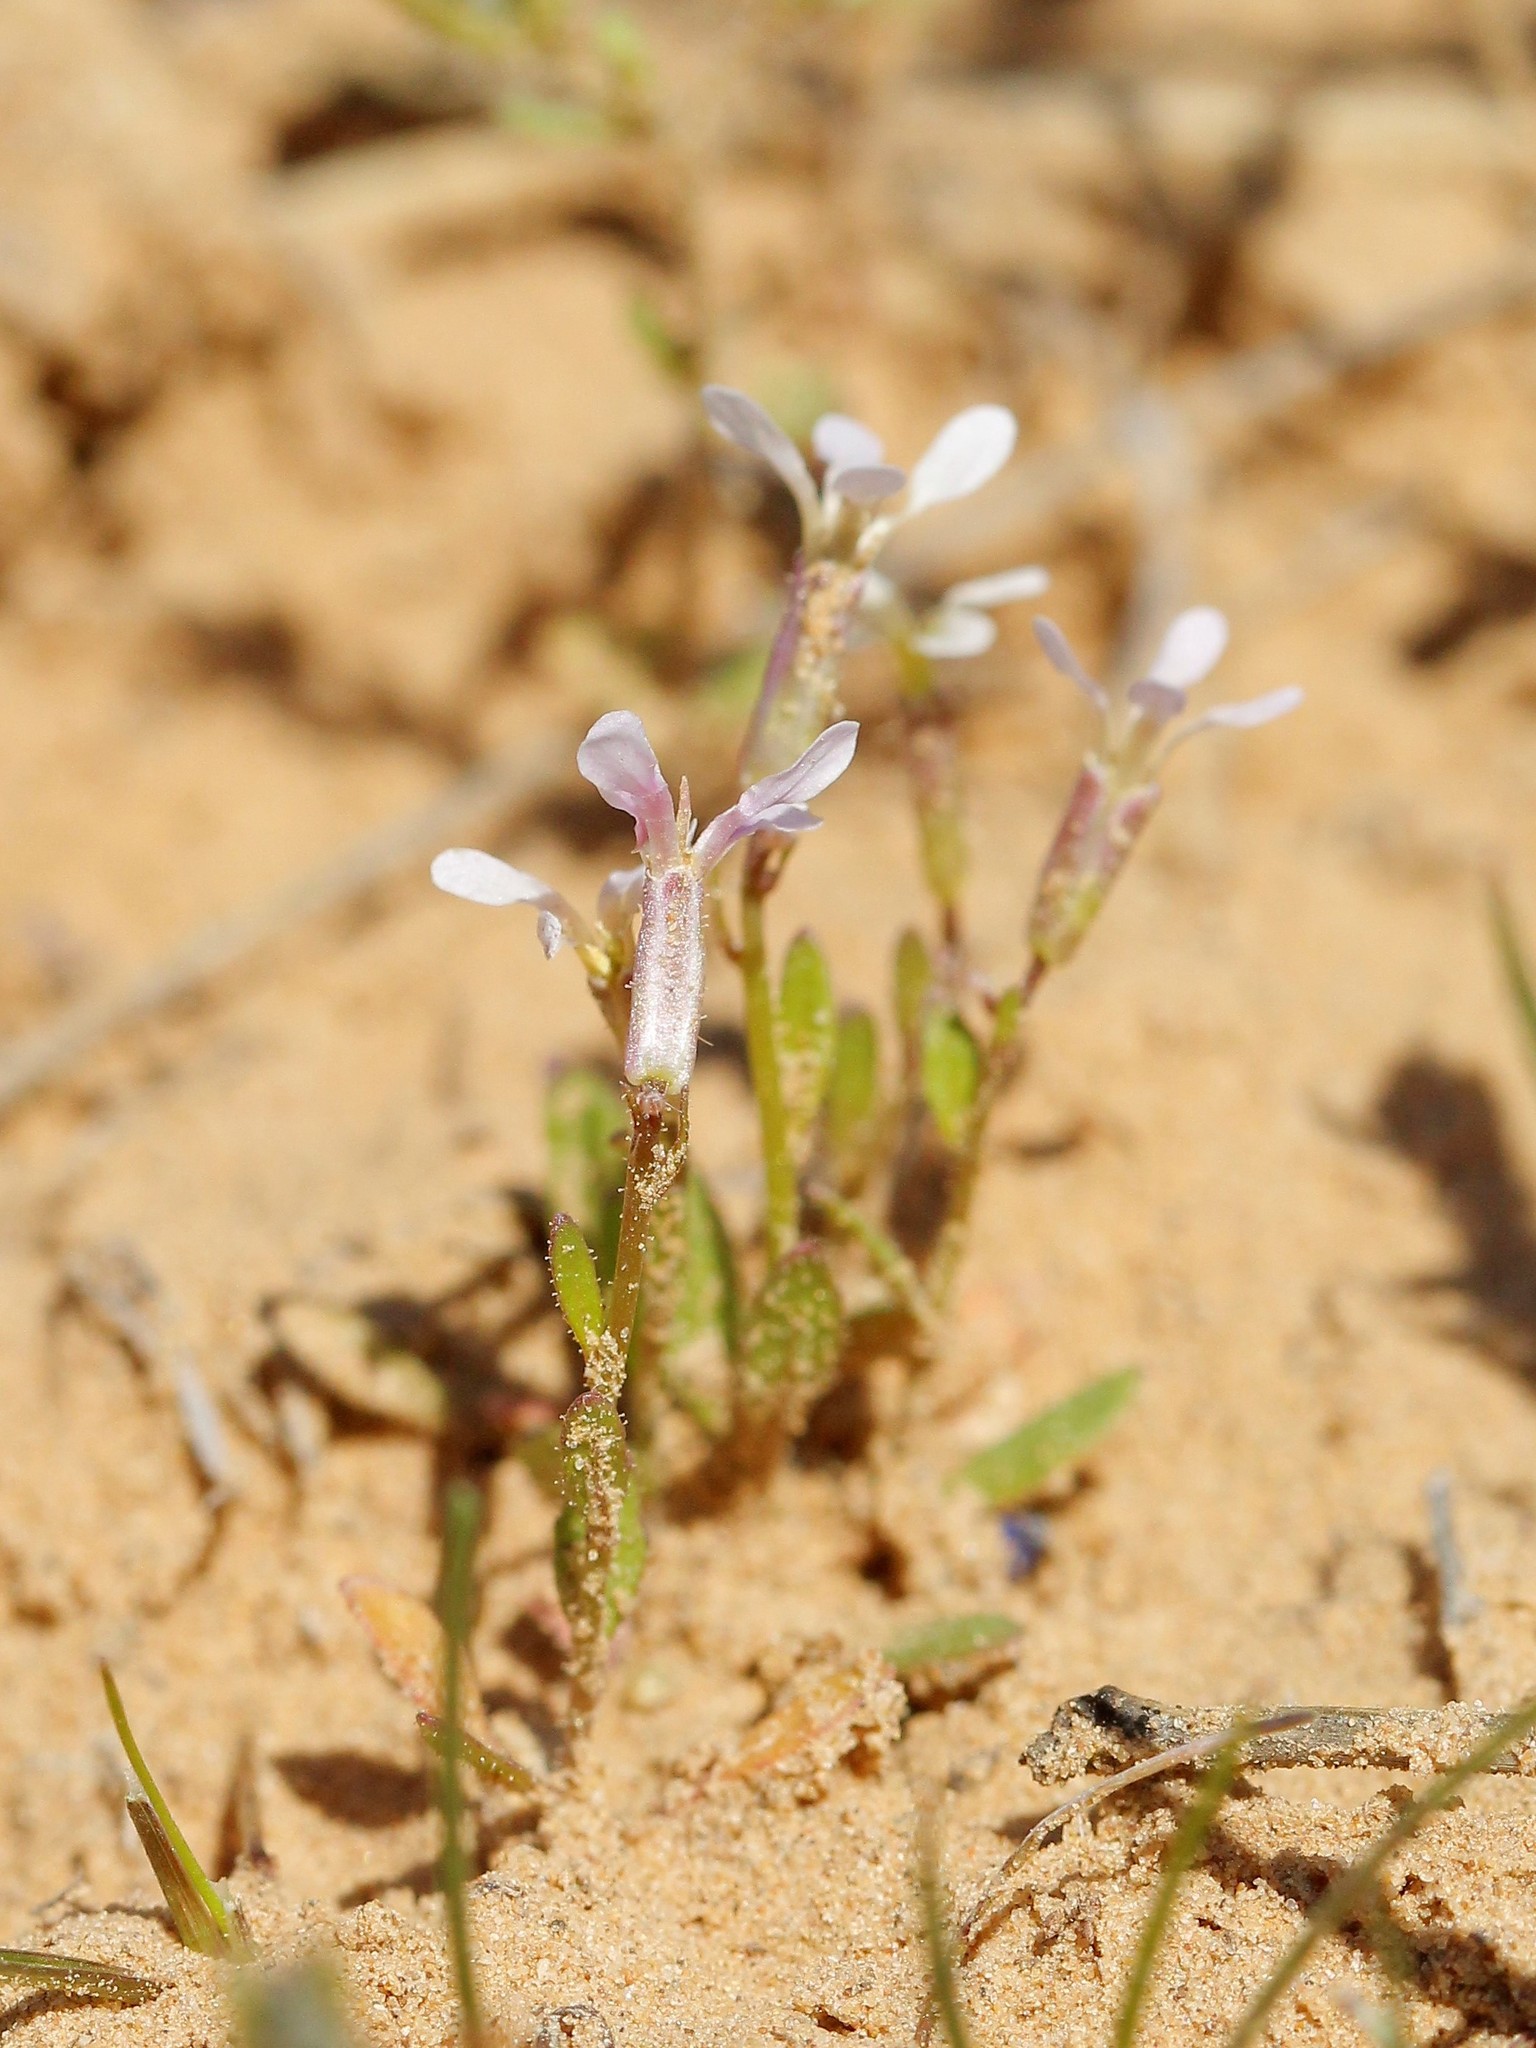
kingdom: Plantae
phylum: Tracheophyta
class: Magnoliopsida
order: Brassicales
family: Brassicaceae
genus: Chorispora
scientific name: Chorispora tenella
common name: Crossflower
